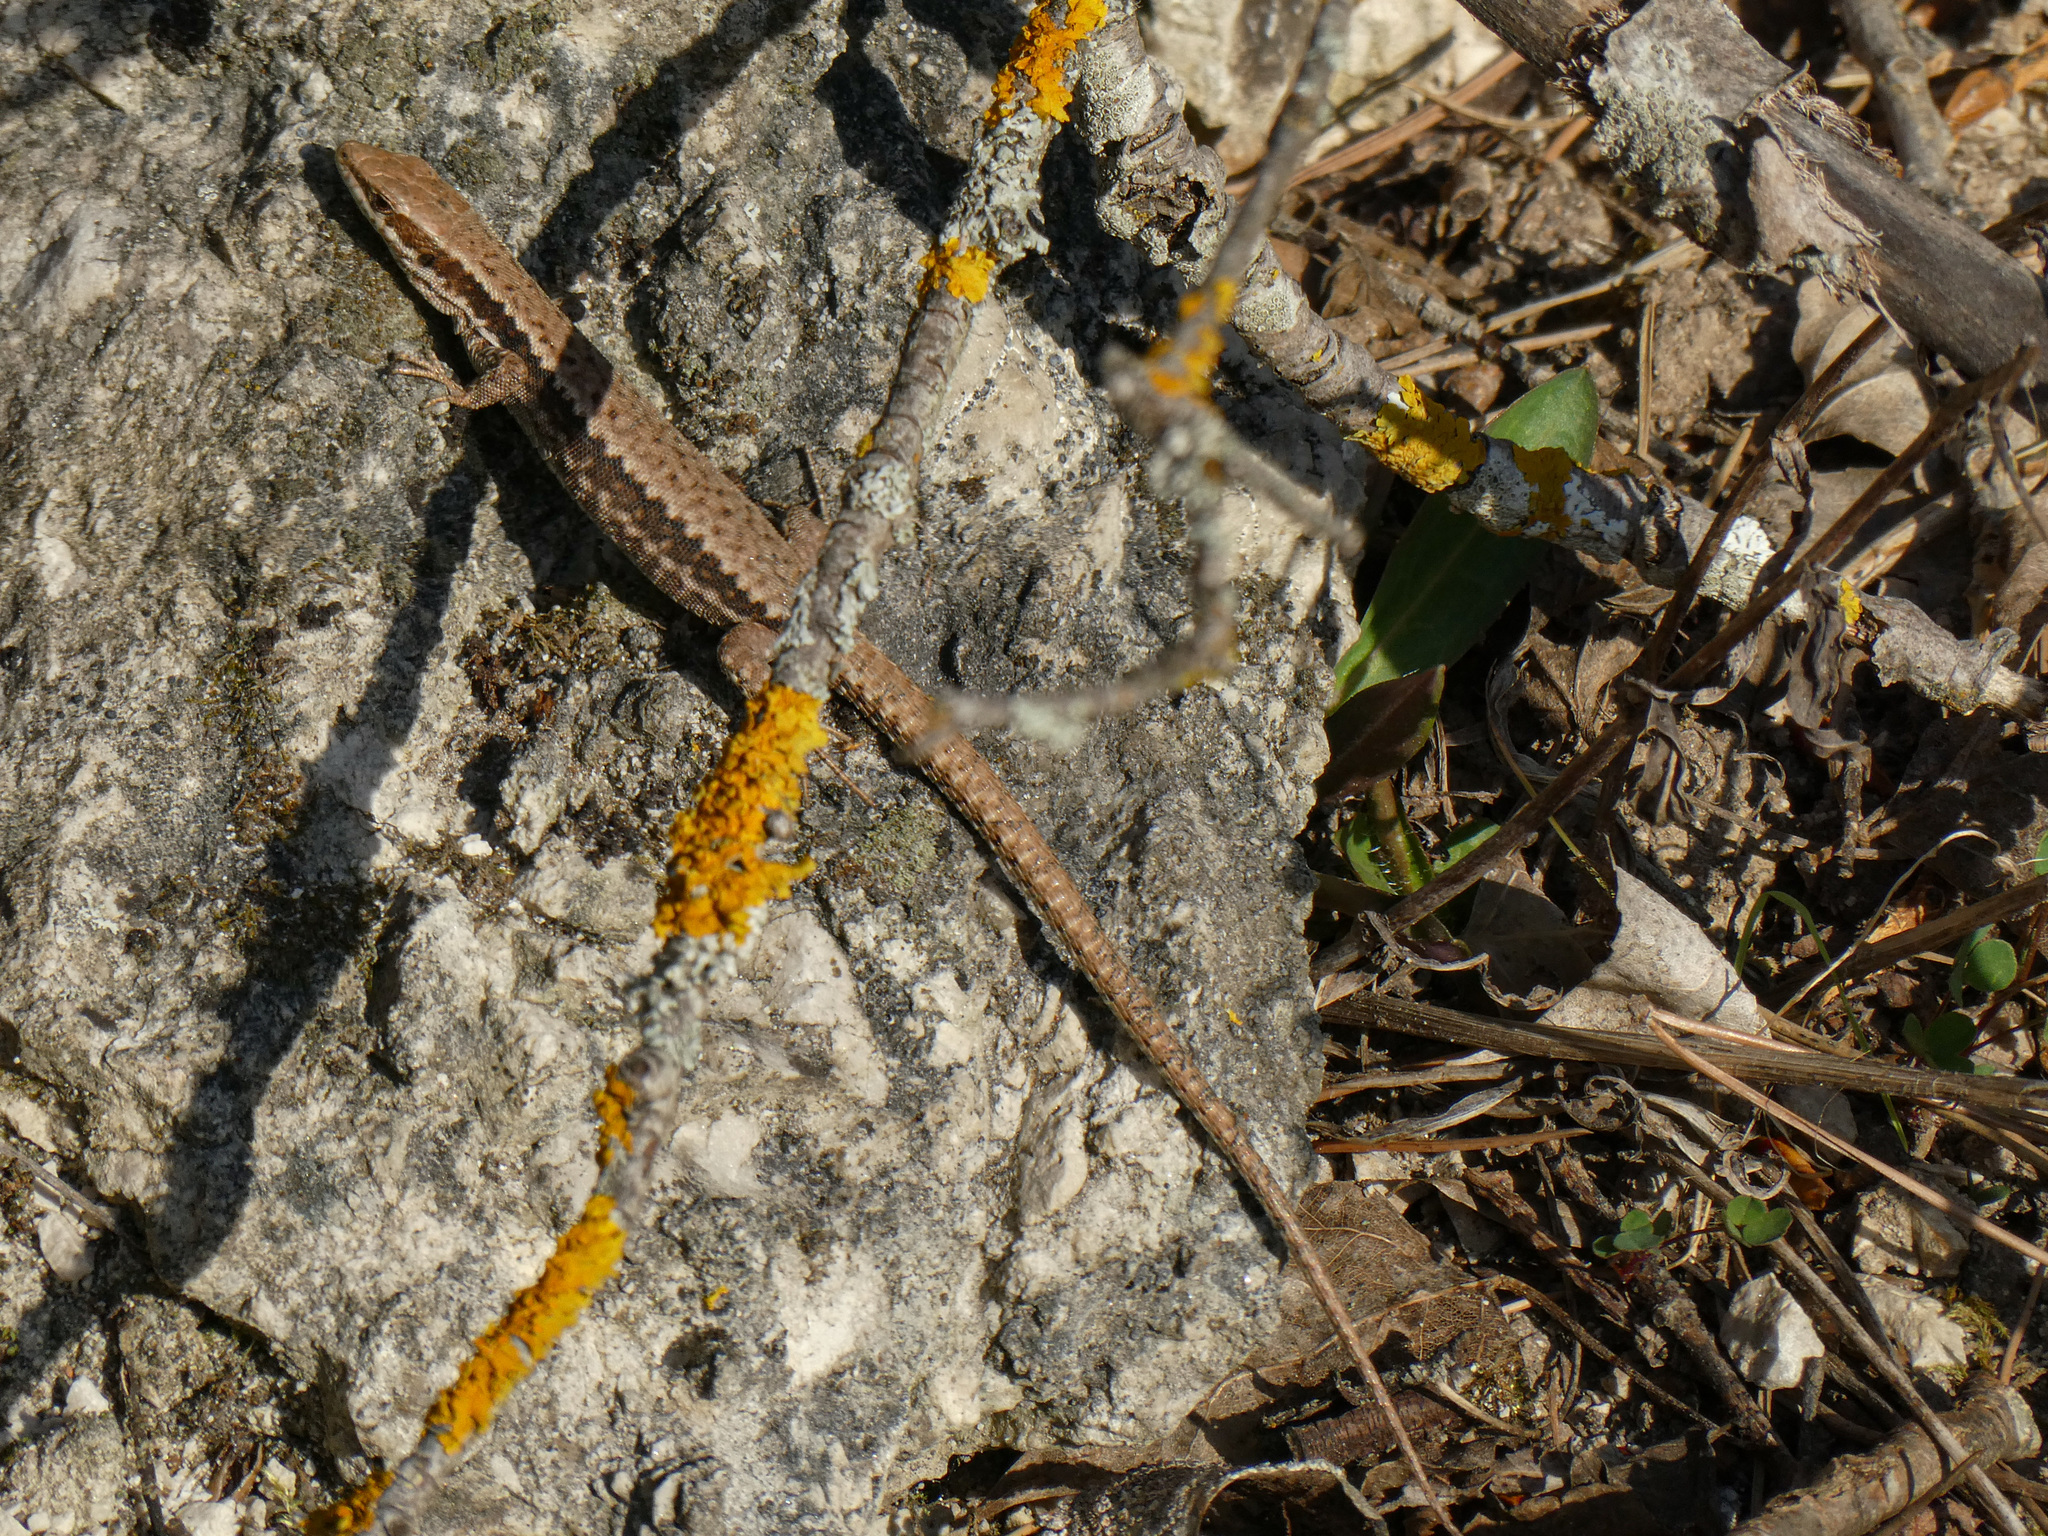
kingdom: Animalia
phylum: Chordata
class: Squamata
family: Lacertidae
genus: Podarcis
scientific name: Podarcis muralis
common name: Common wall lizard
